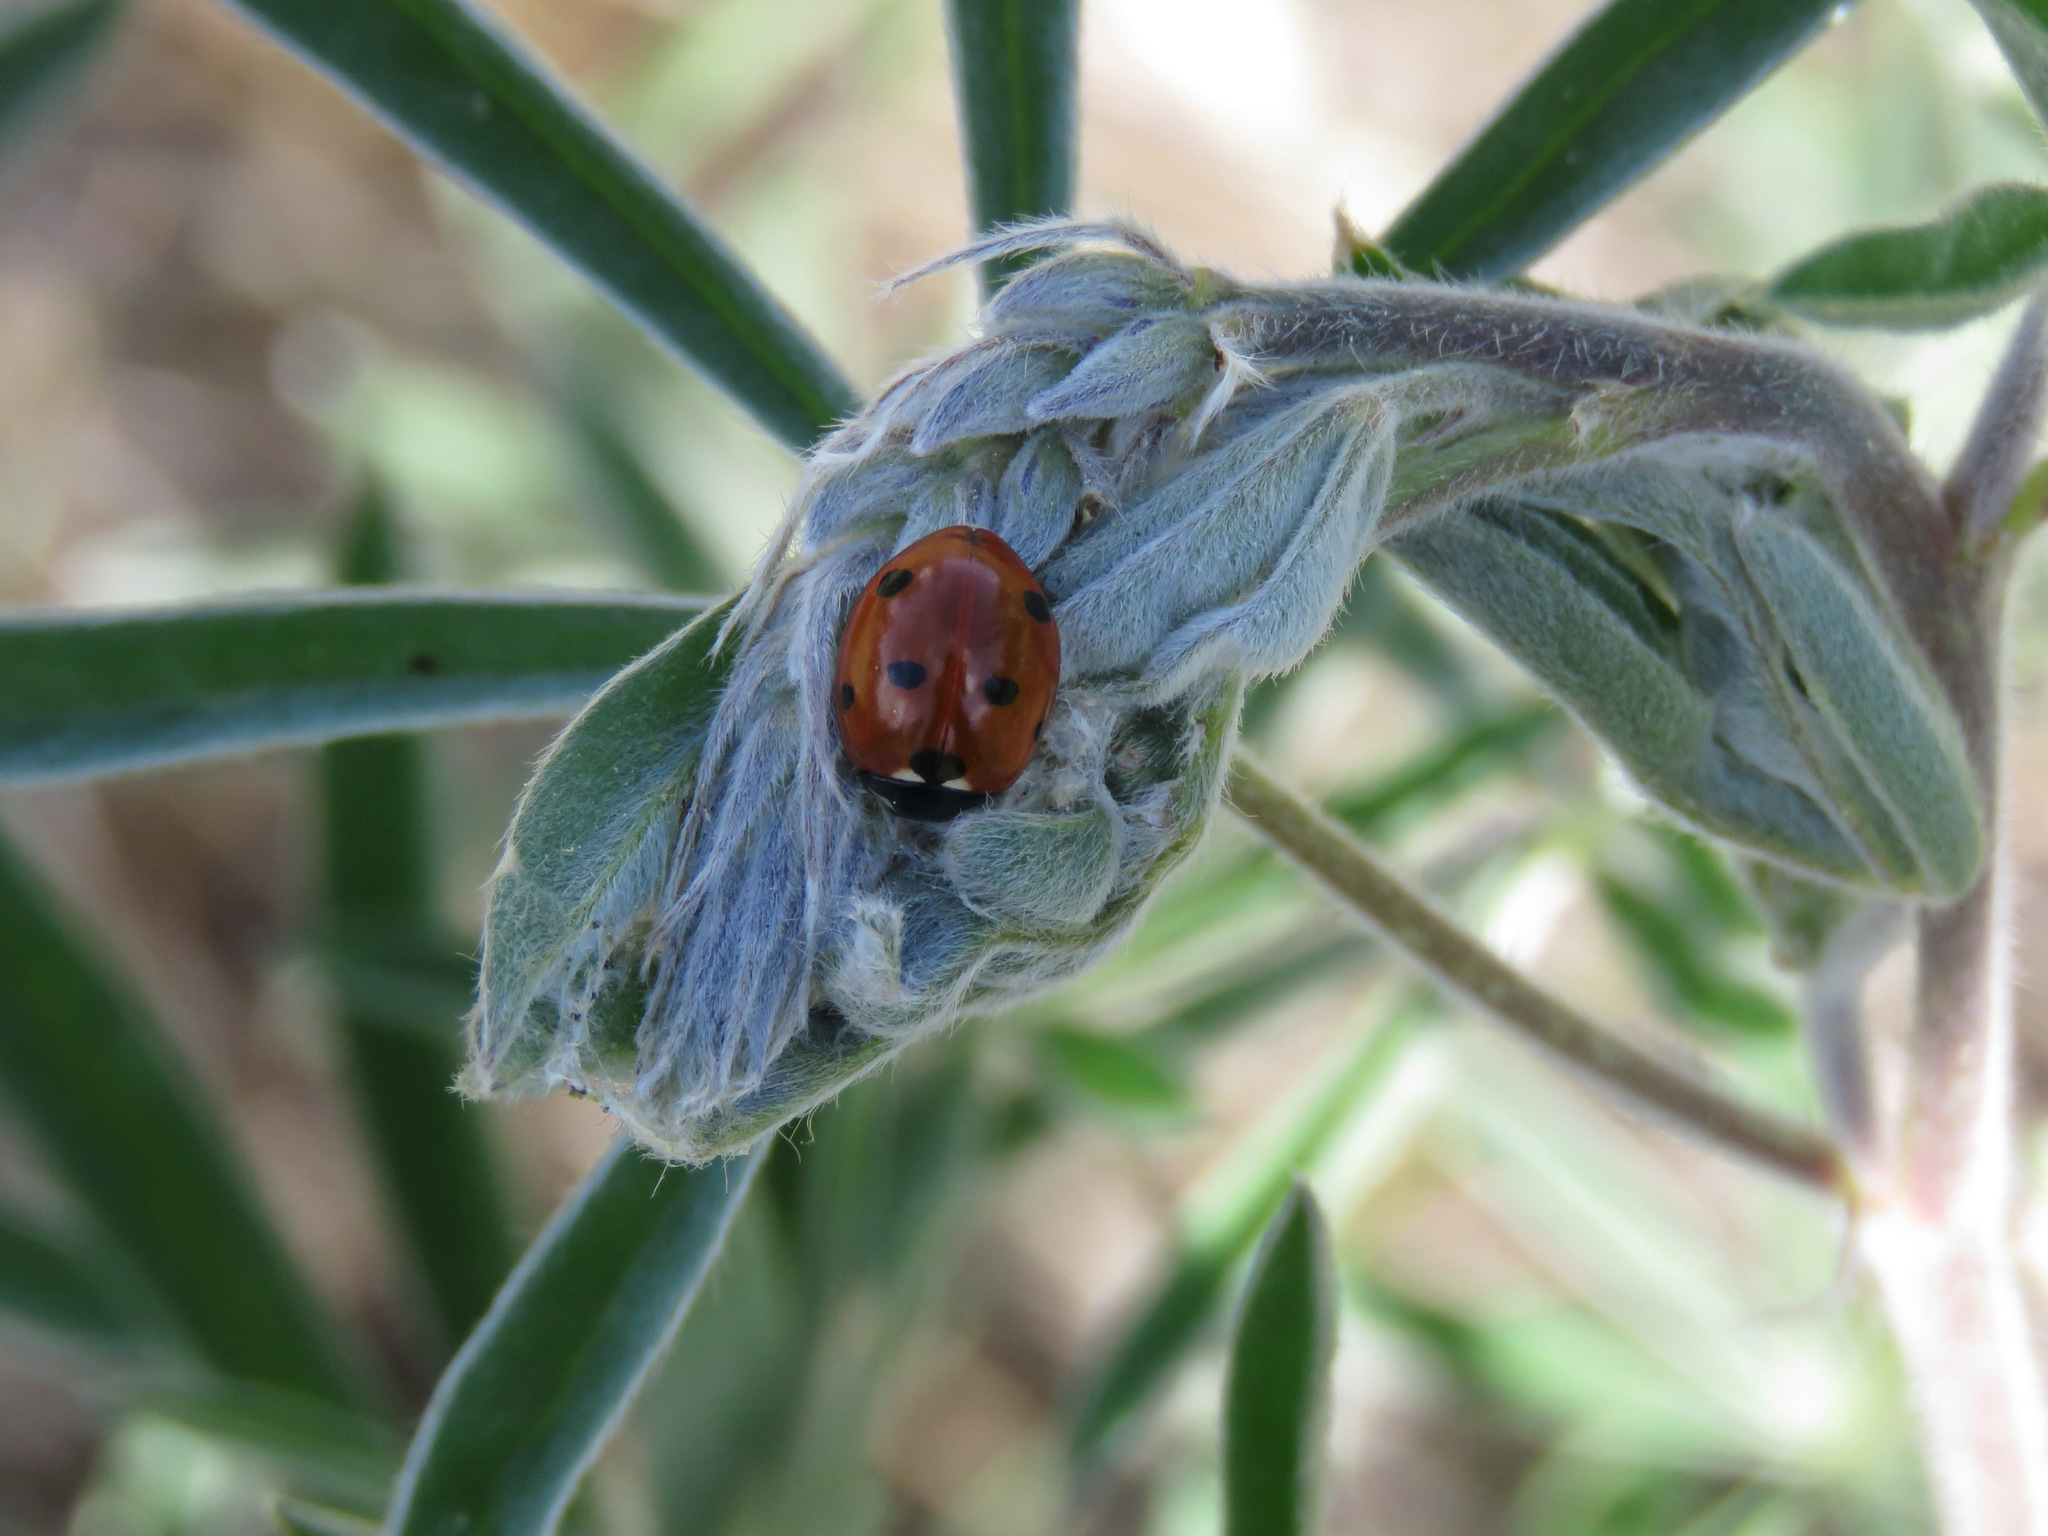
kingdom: Animalia
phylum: Arthropoda
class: Insecta
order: Coleoptera
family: Coccinellidae
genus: Coccinella
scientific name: Coccinella septempunctata
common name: Sevenspotted lady beetle
